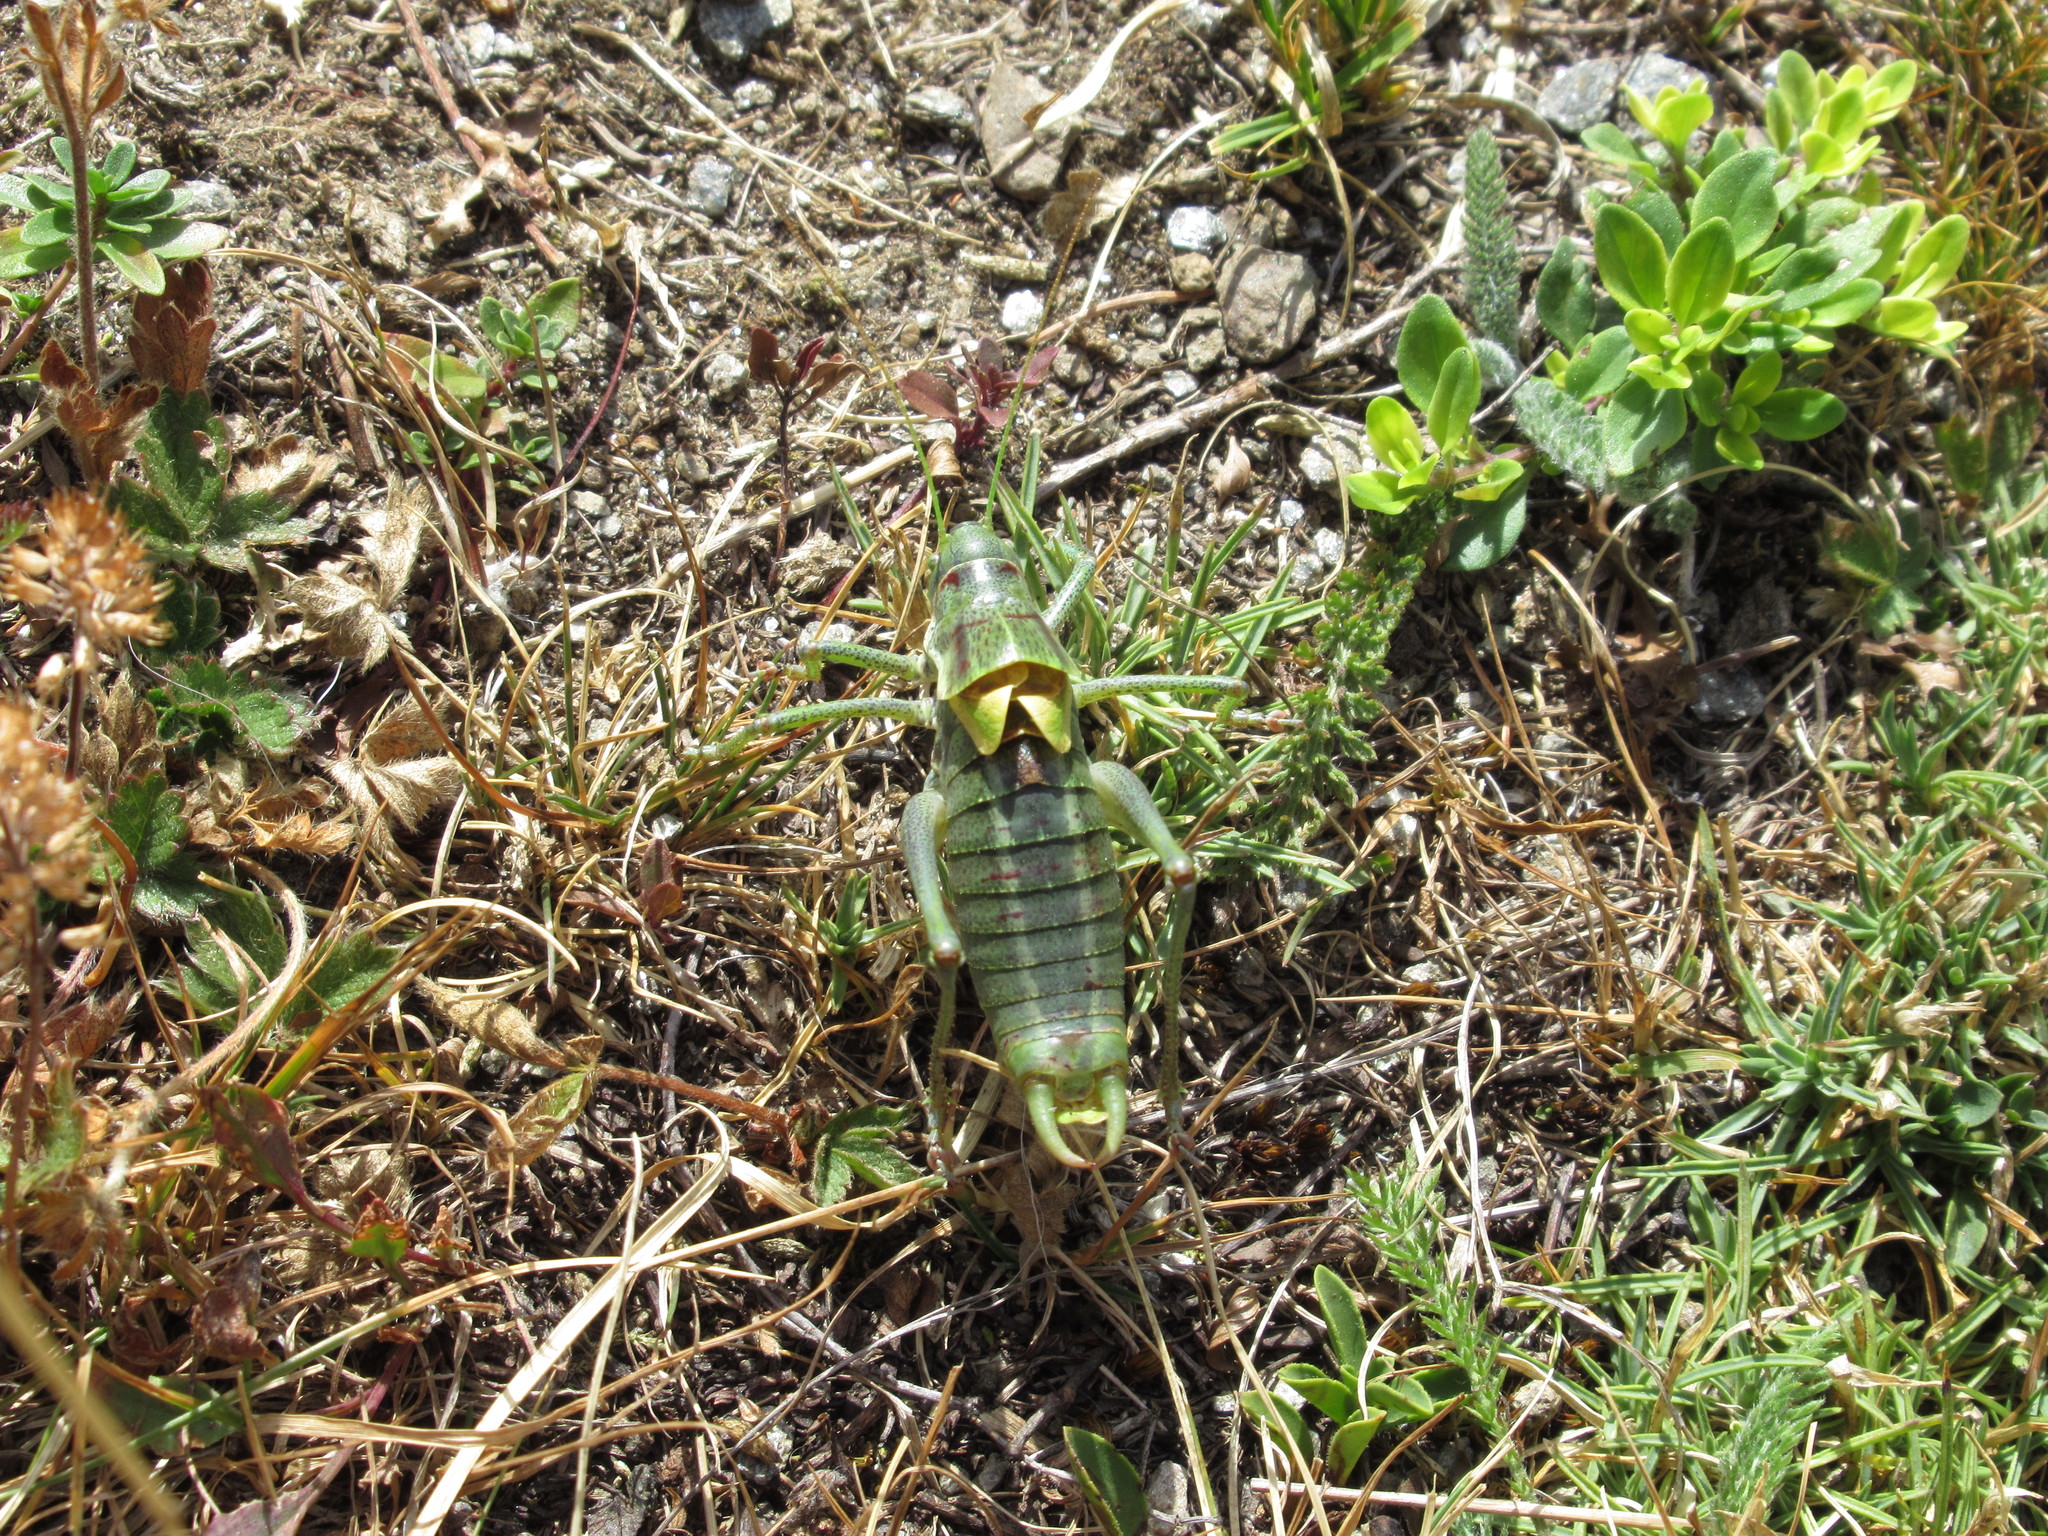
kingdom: Animalia
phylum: Arthropoda
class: Insecta
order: Orthoptera
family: Tettigoniidae
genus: Polysarcus
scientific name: Polysarcus denticauda
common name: Large saw-tailed bush-cricket
